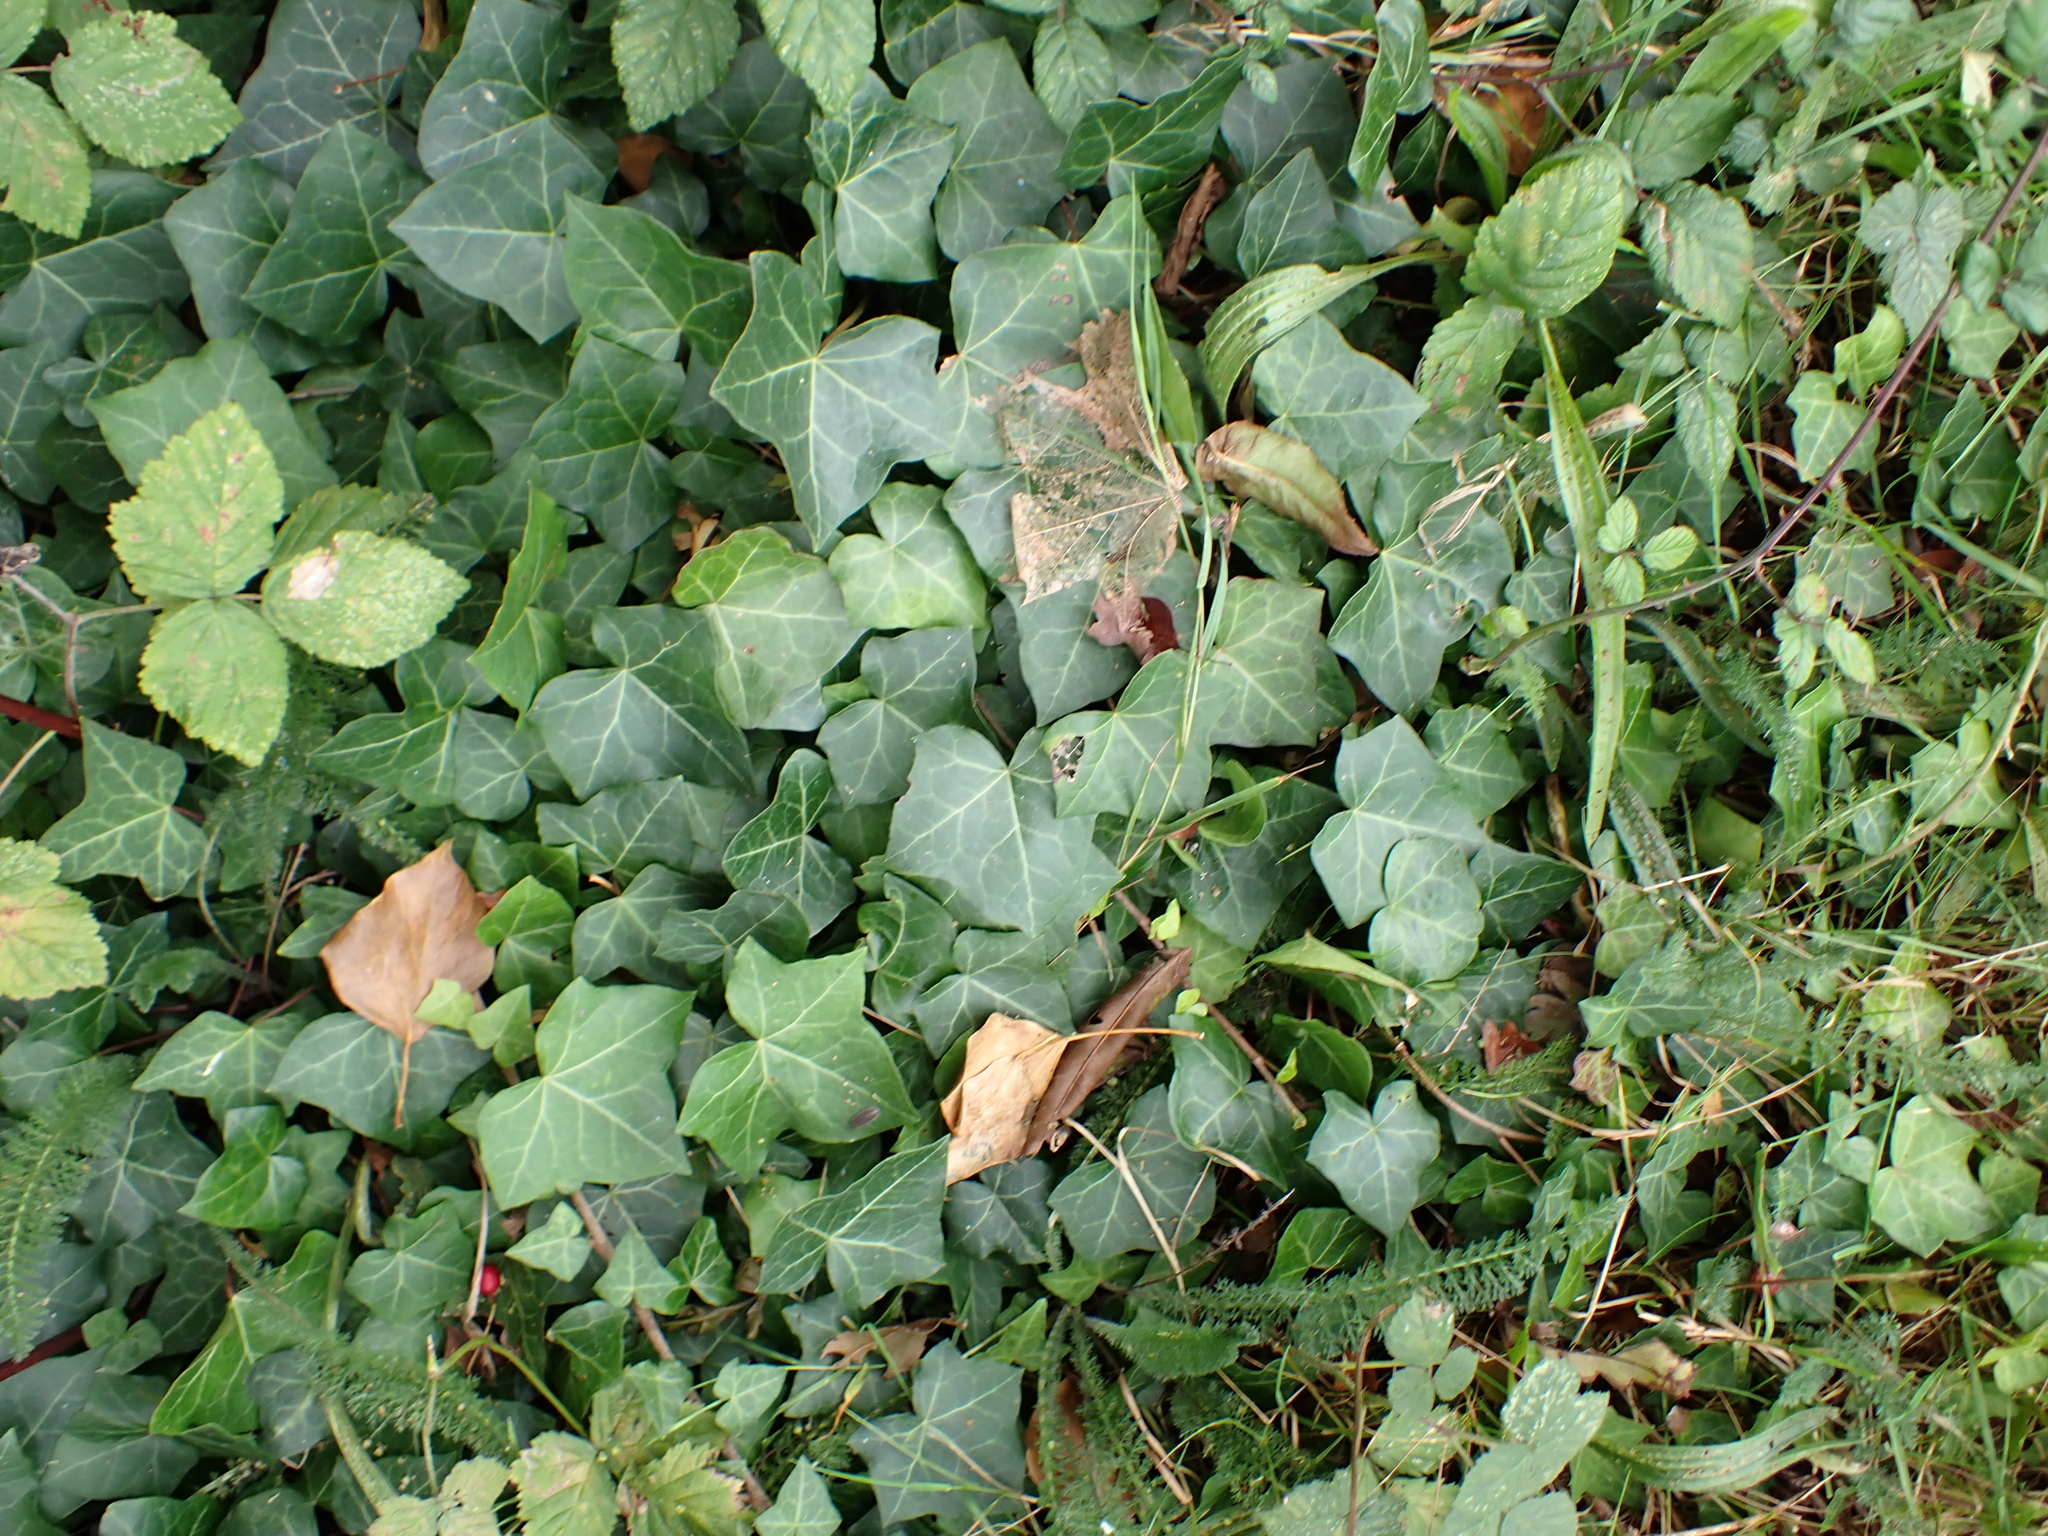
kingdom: Plantae
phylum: Tracheophyta
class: Magnoliopsida
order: Apiales
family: Araliaceae
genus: Hedera
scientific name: Hedera helix
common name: Ivy
